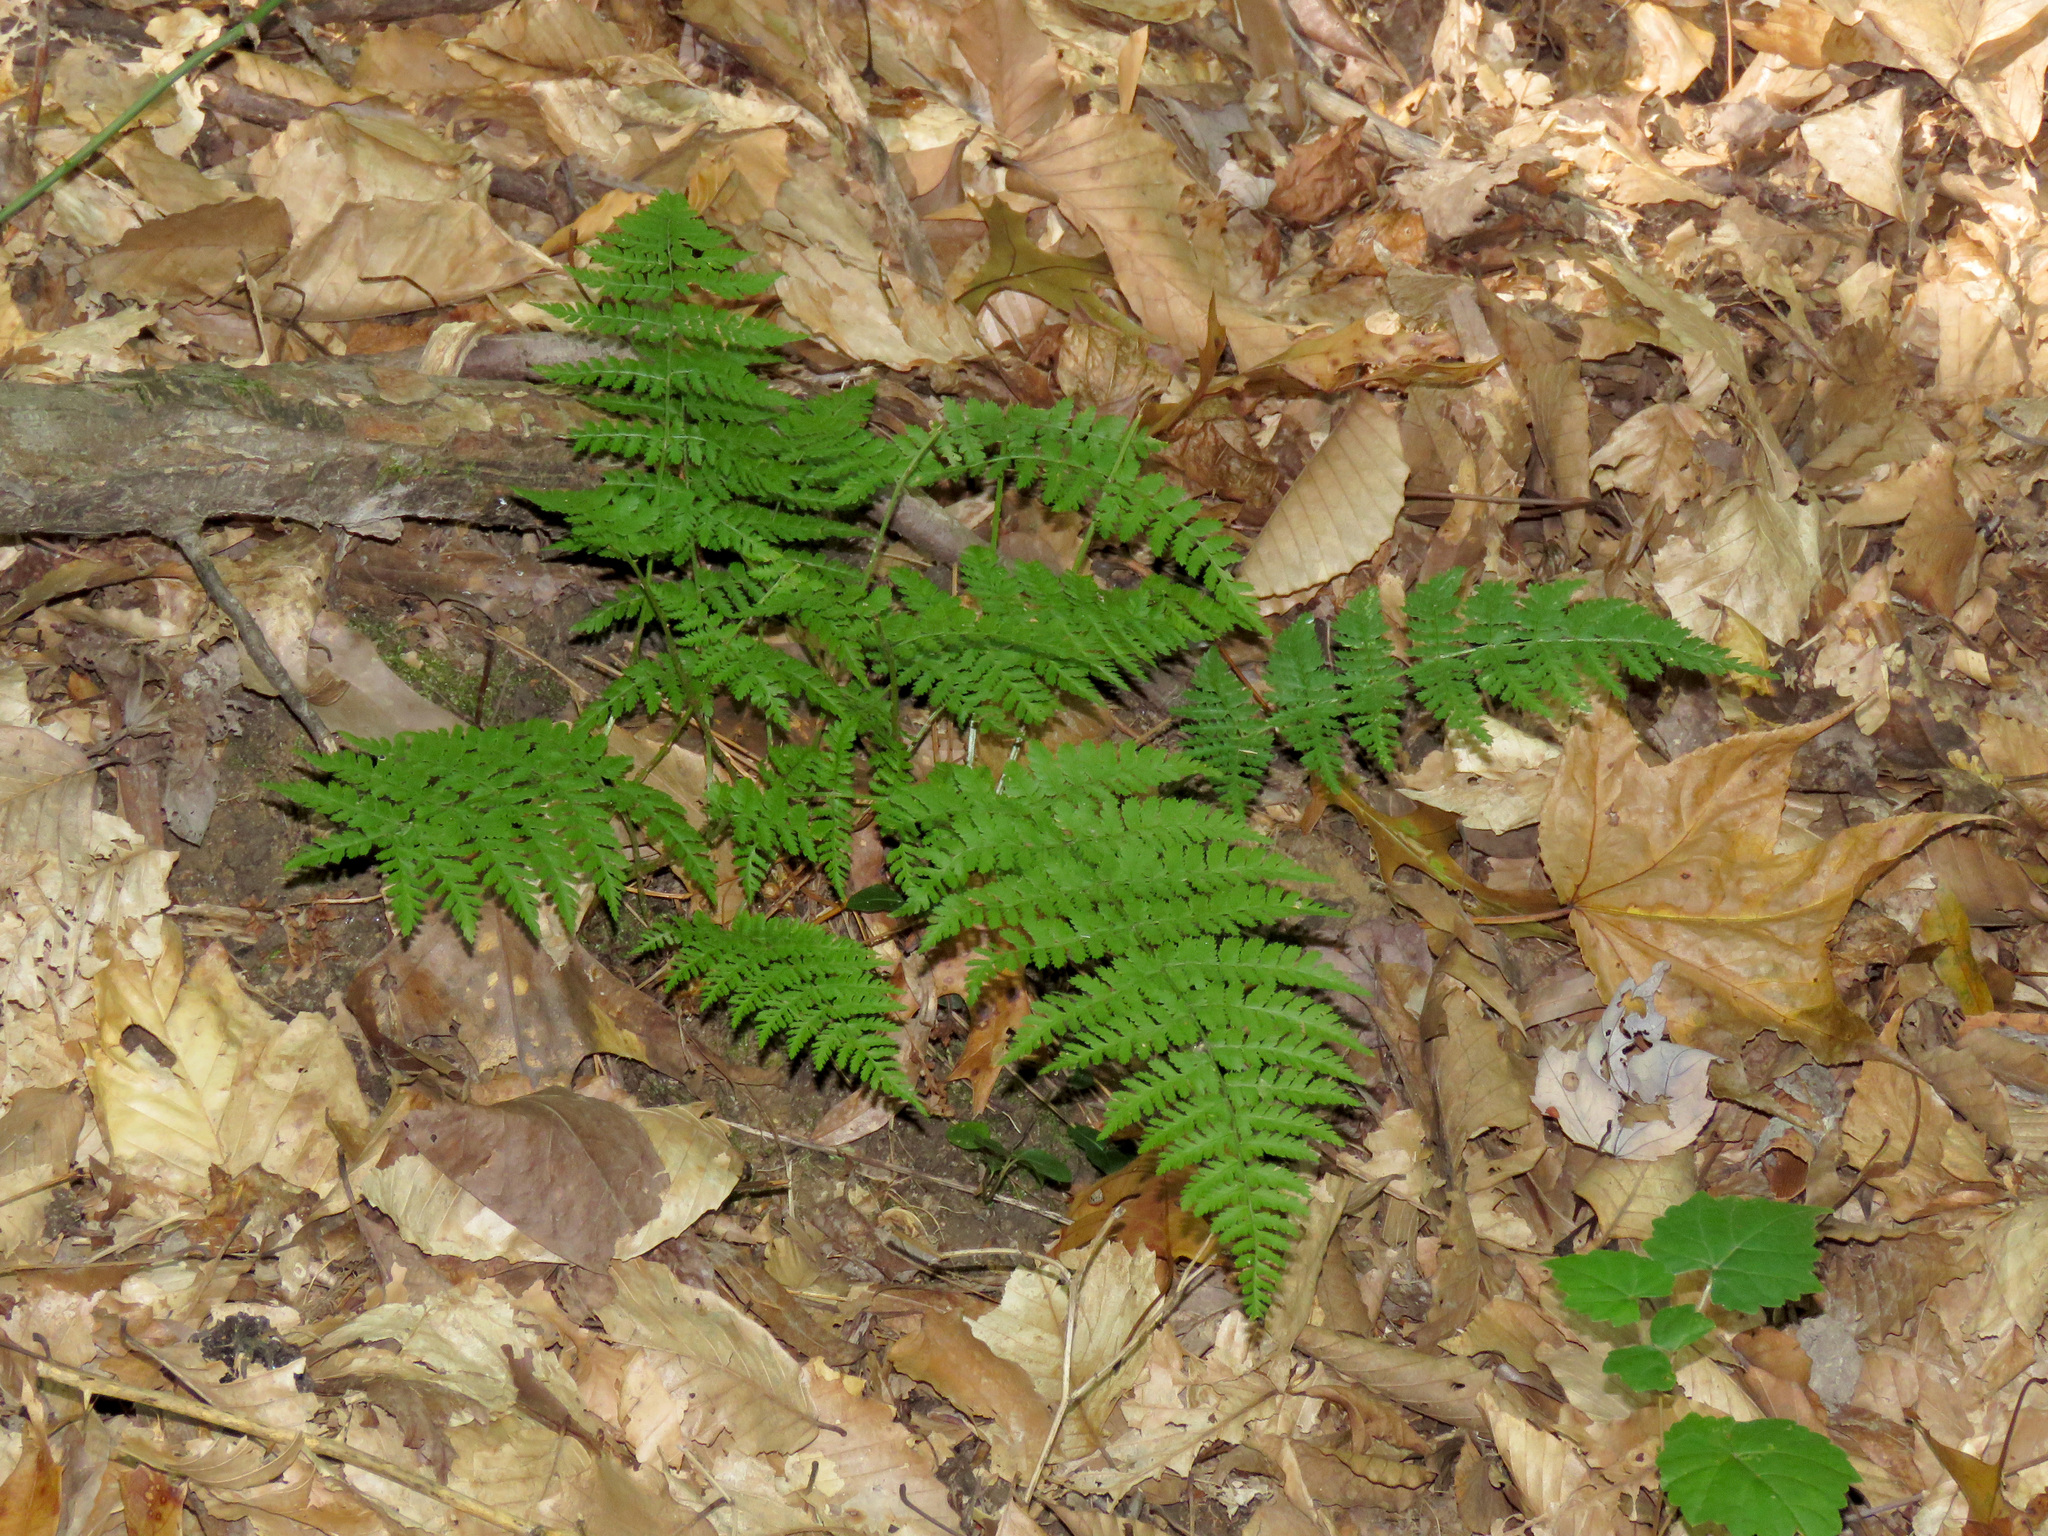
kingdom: Plantae
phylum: Tracheophyta
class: Polypodiopsida
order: Polypodiales
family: Dryopteridaceae
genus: Dryopteris
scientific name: Dryopteris intermedia
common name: Evergreen wood fern
